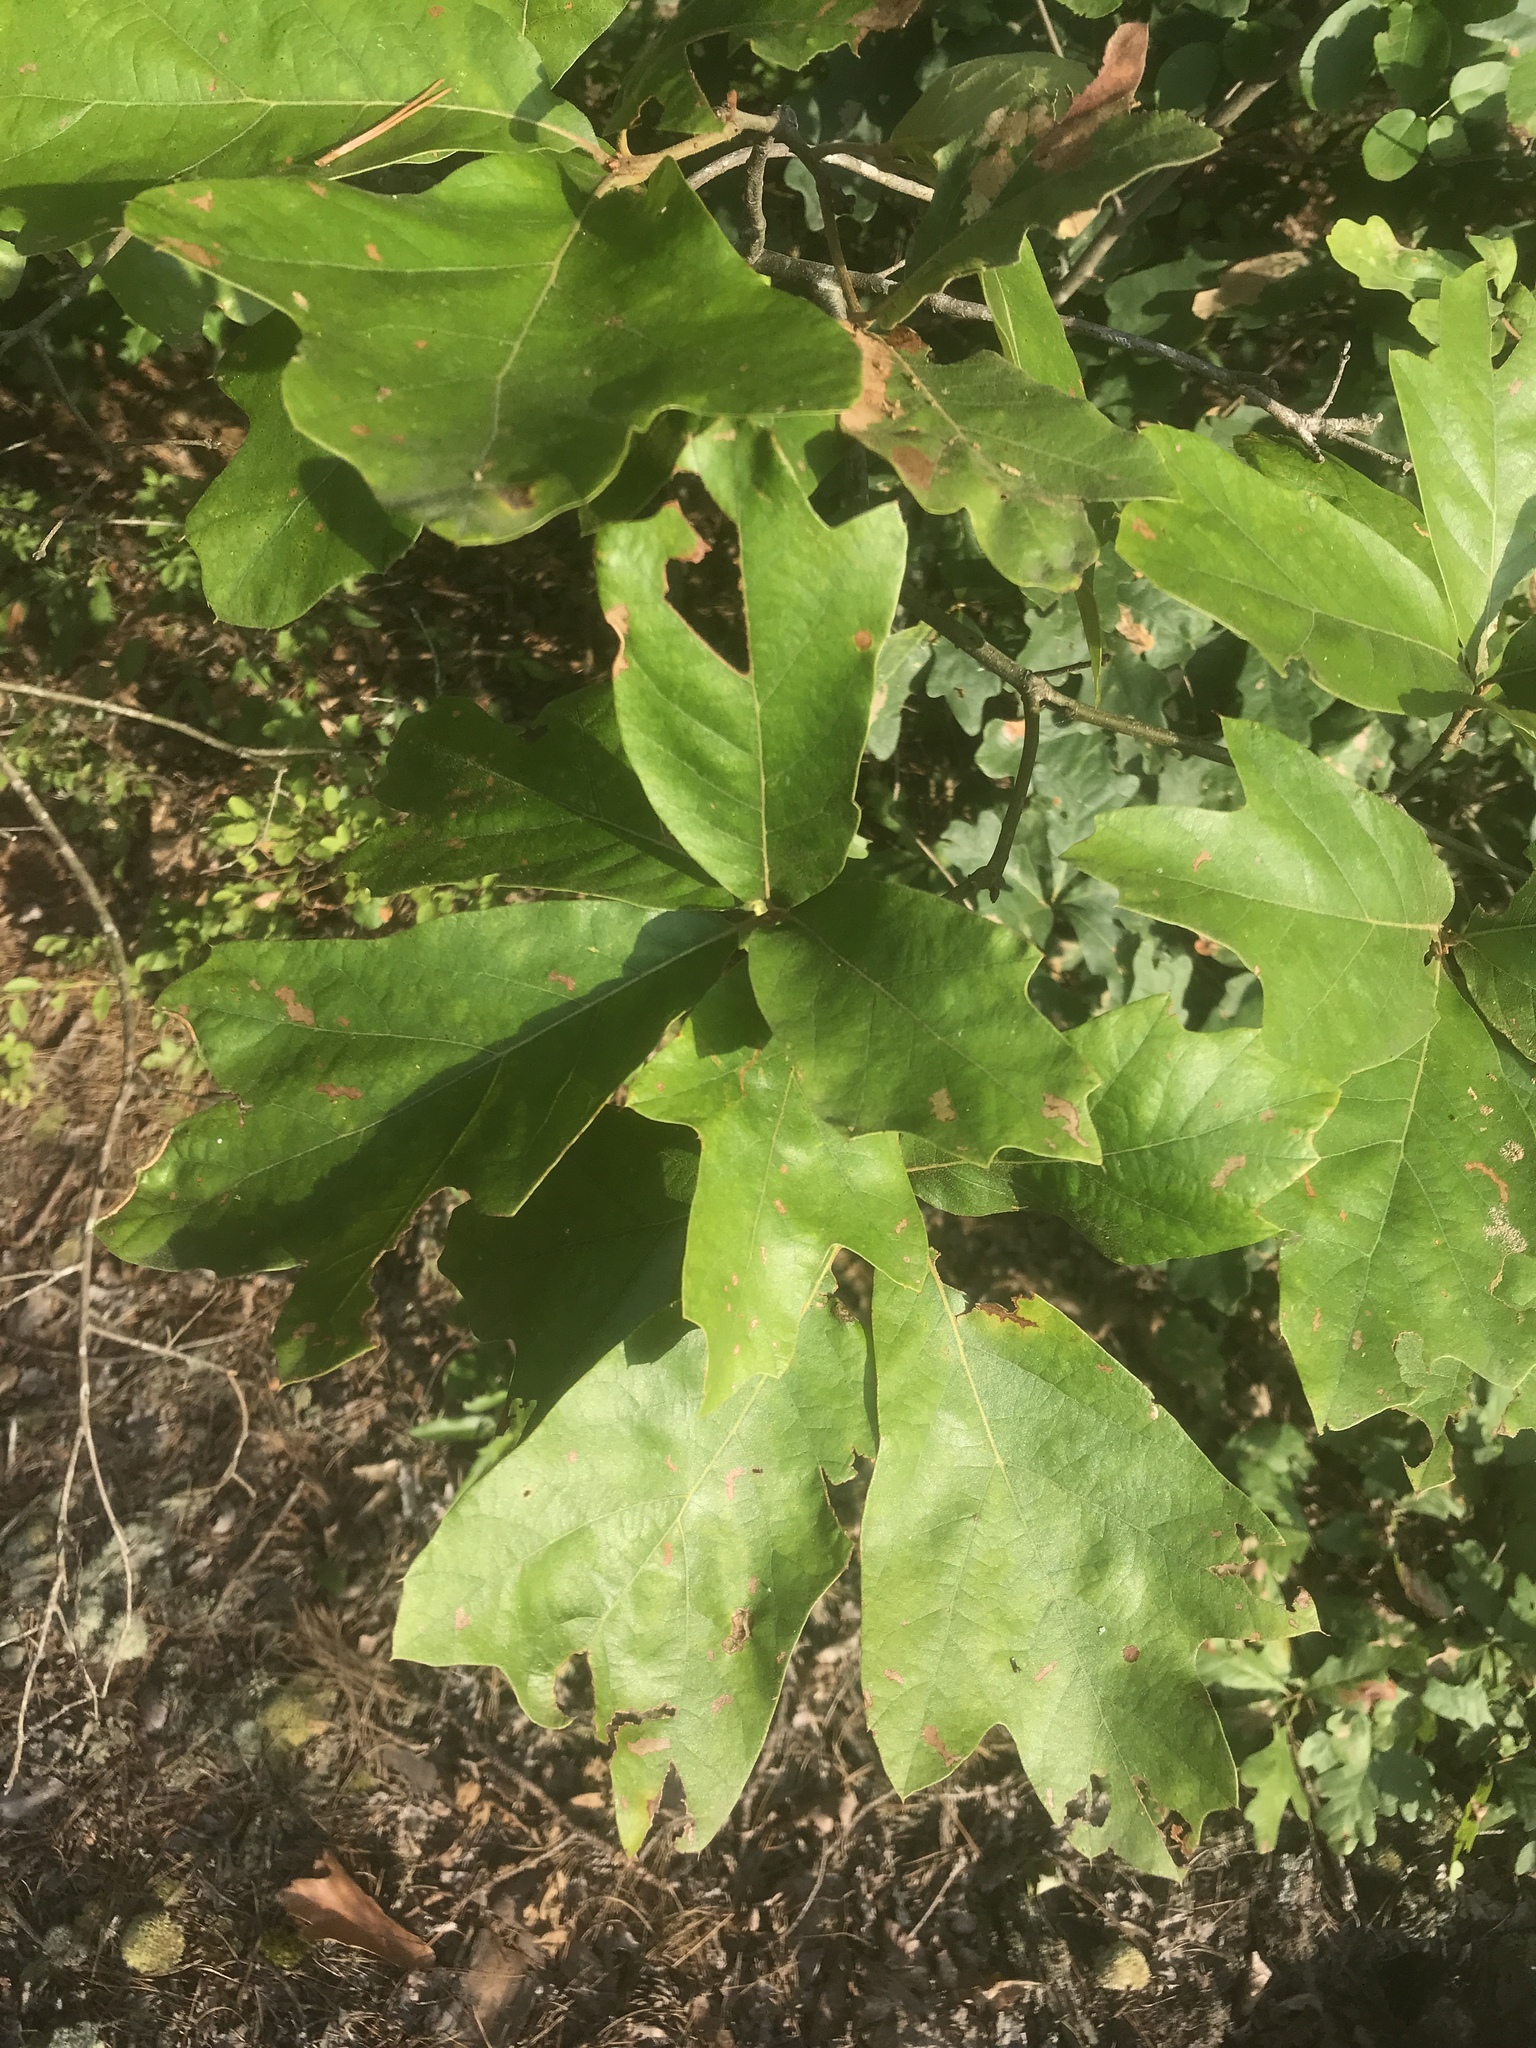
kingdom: Plantae
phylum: Tracheophyta
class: Magnoliopsida
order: Fagales
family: Fagaceae
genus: Quercus
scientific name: Quercus falcata
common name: Southern red oak
